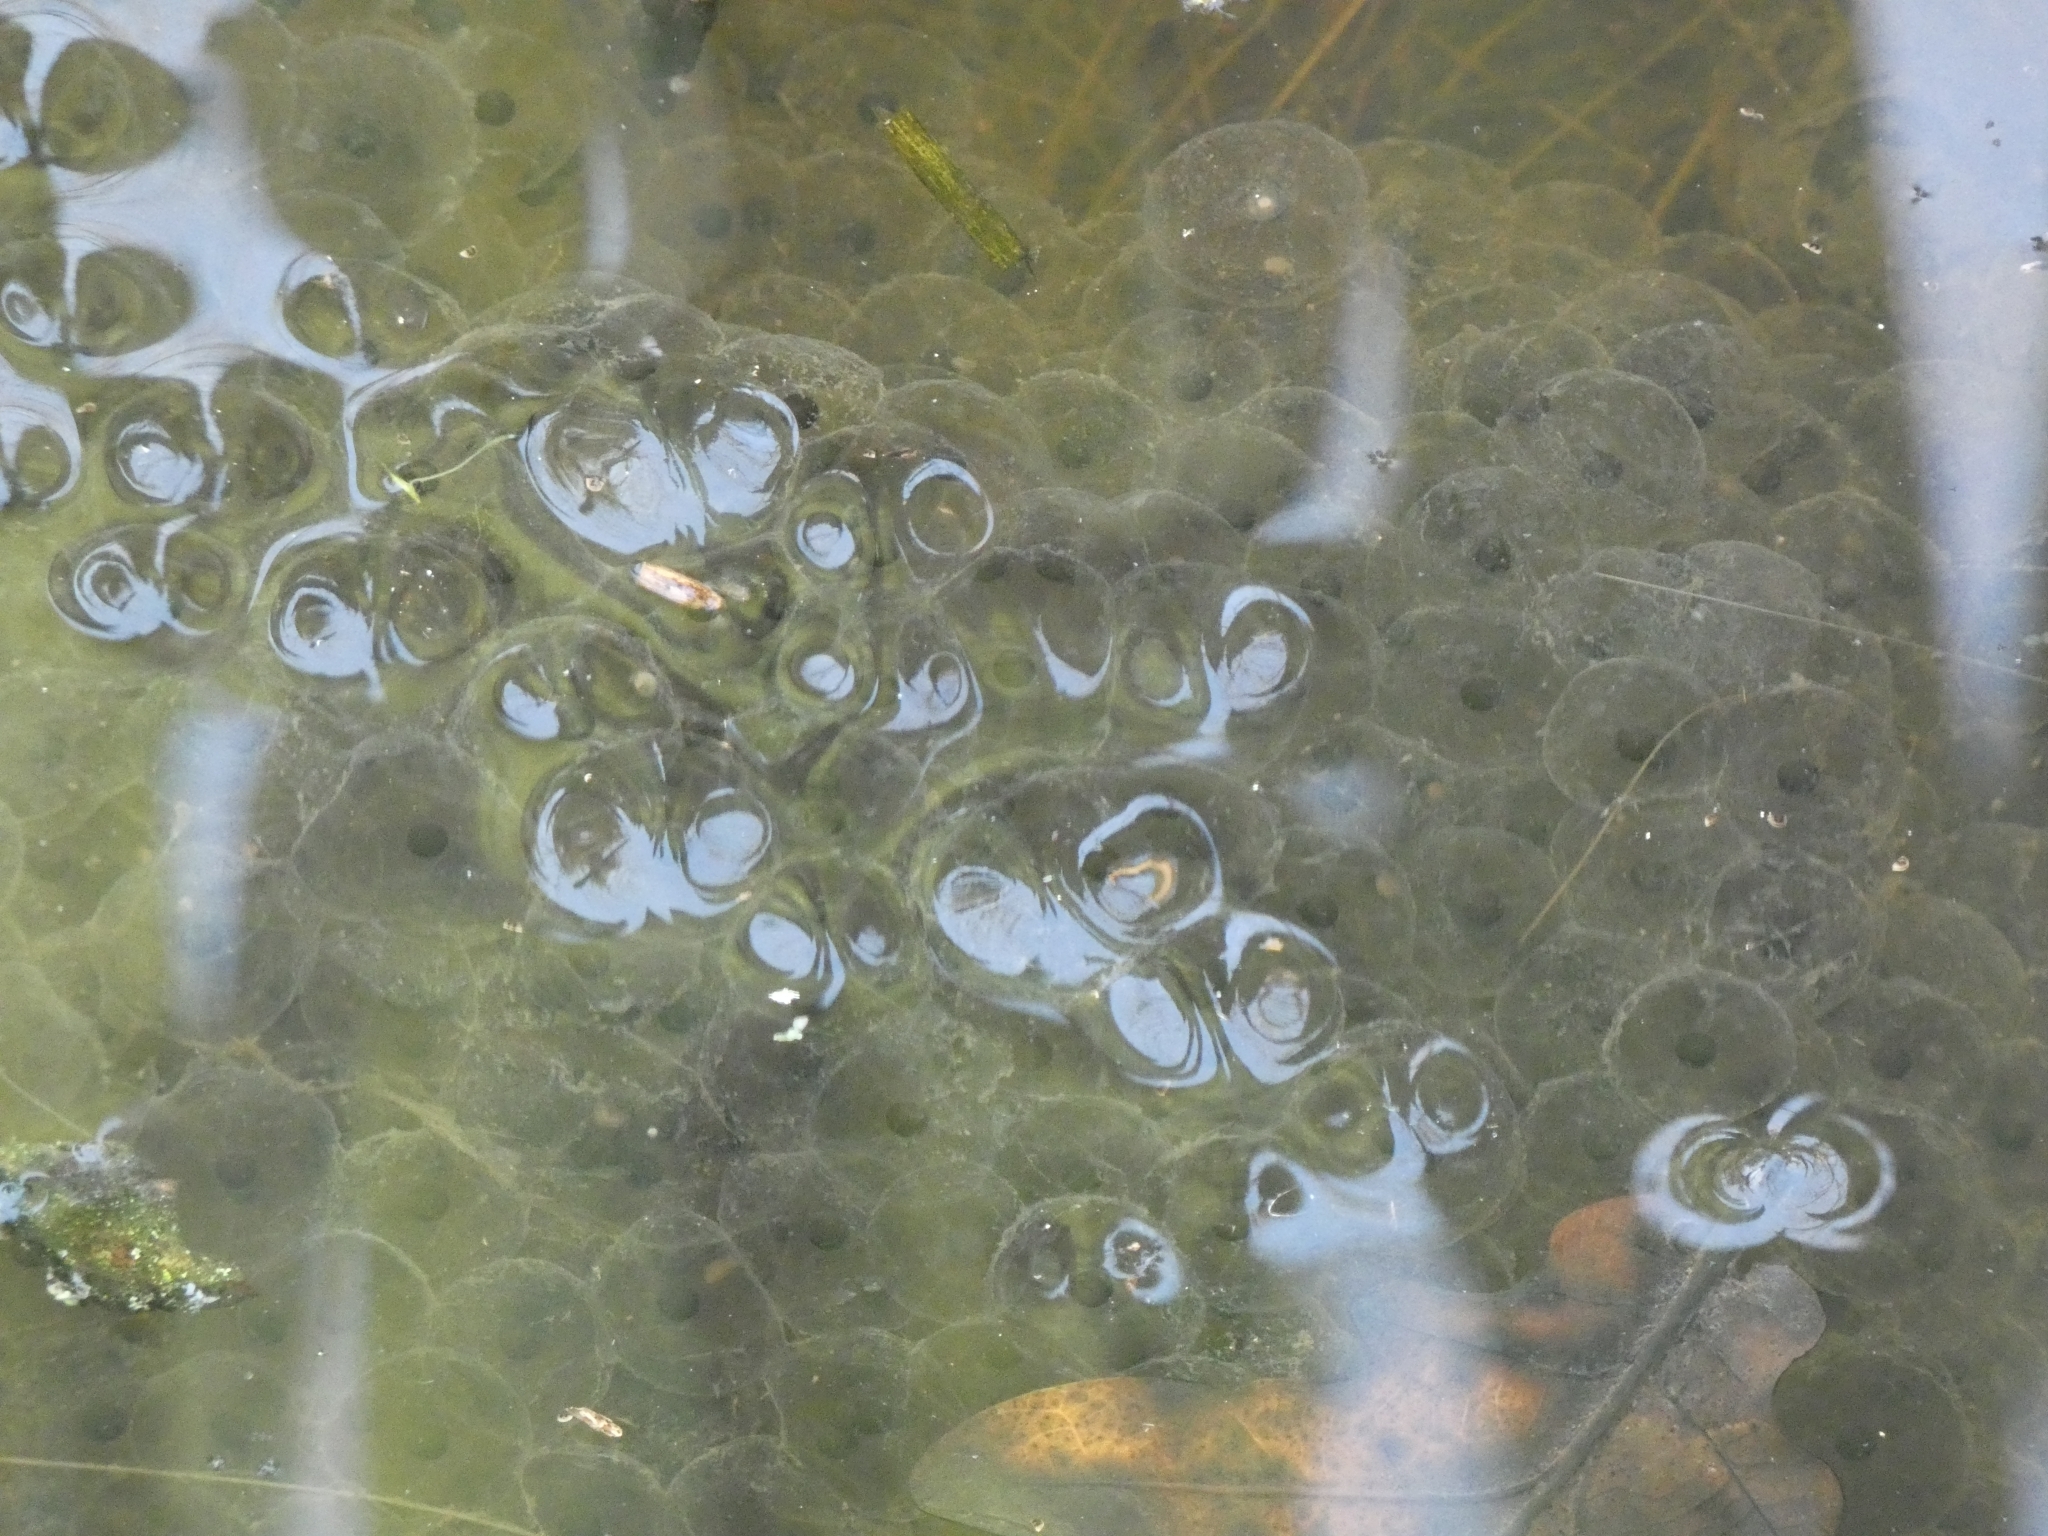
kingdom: Animalia
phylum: Chordata
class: Amphibia
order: Anura
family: Ranidae
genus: Rana
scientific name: Rana temporaria
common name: Common frog
